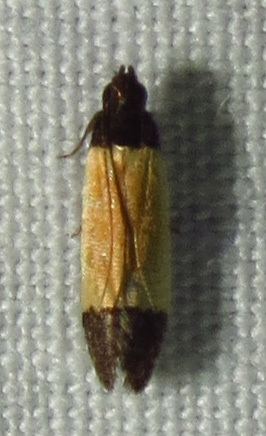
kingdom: Animalia
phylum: Arthropoda
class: Insecta
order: Lepidoptera
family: Gelechiidae
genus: Anacampsis
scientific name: Anacampsis coverdalella
